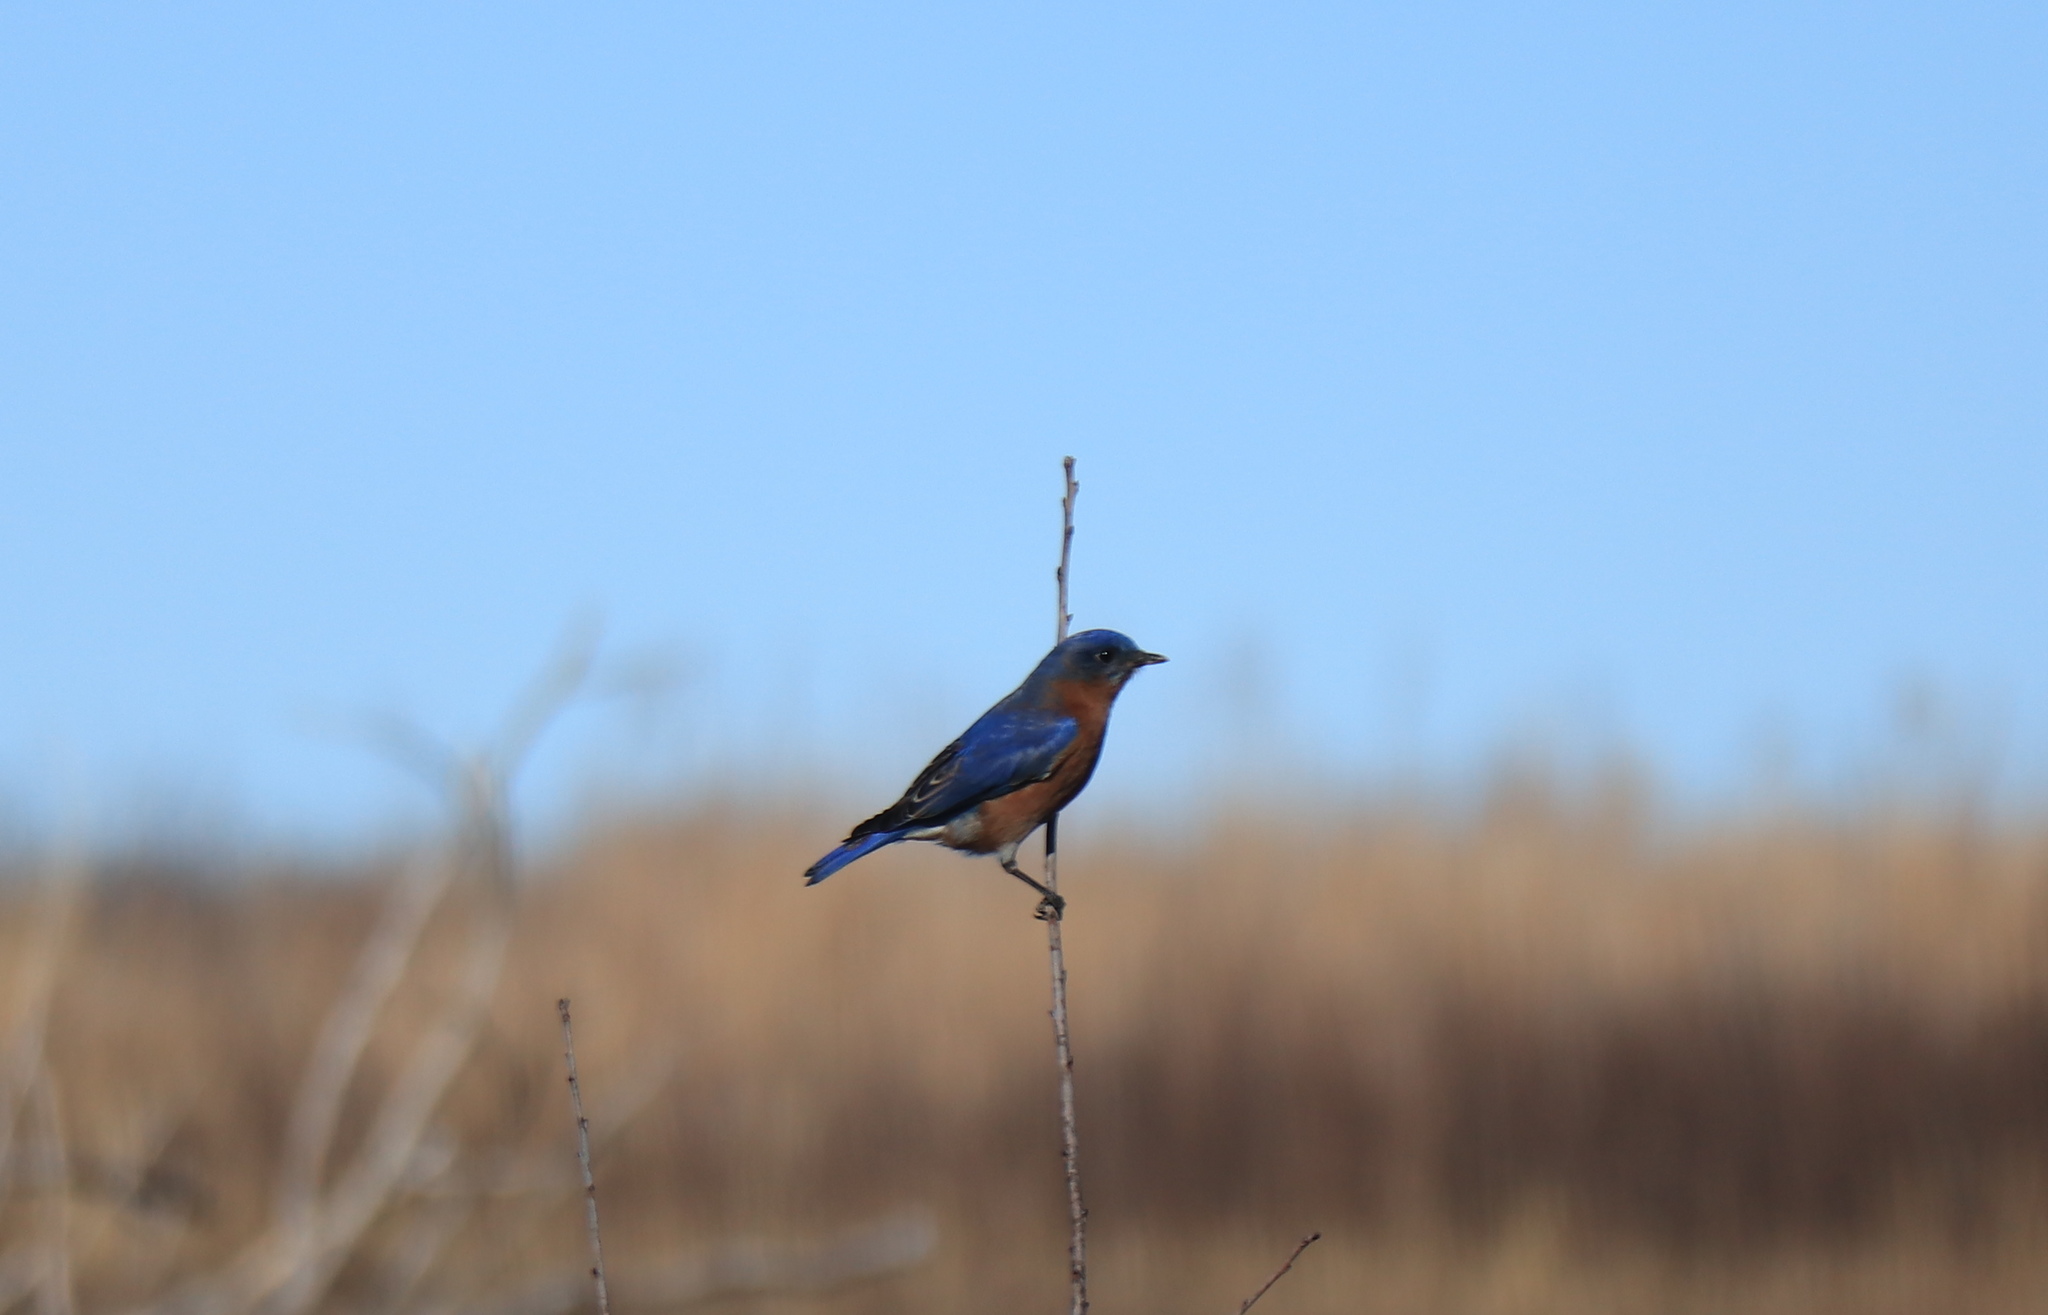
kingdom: Animalia
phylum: Chordata
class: Aves
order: Passeriformes
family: Turdidae
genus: Sialia
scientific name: Sialia sialis
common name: Eastern bluebird
